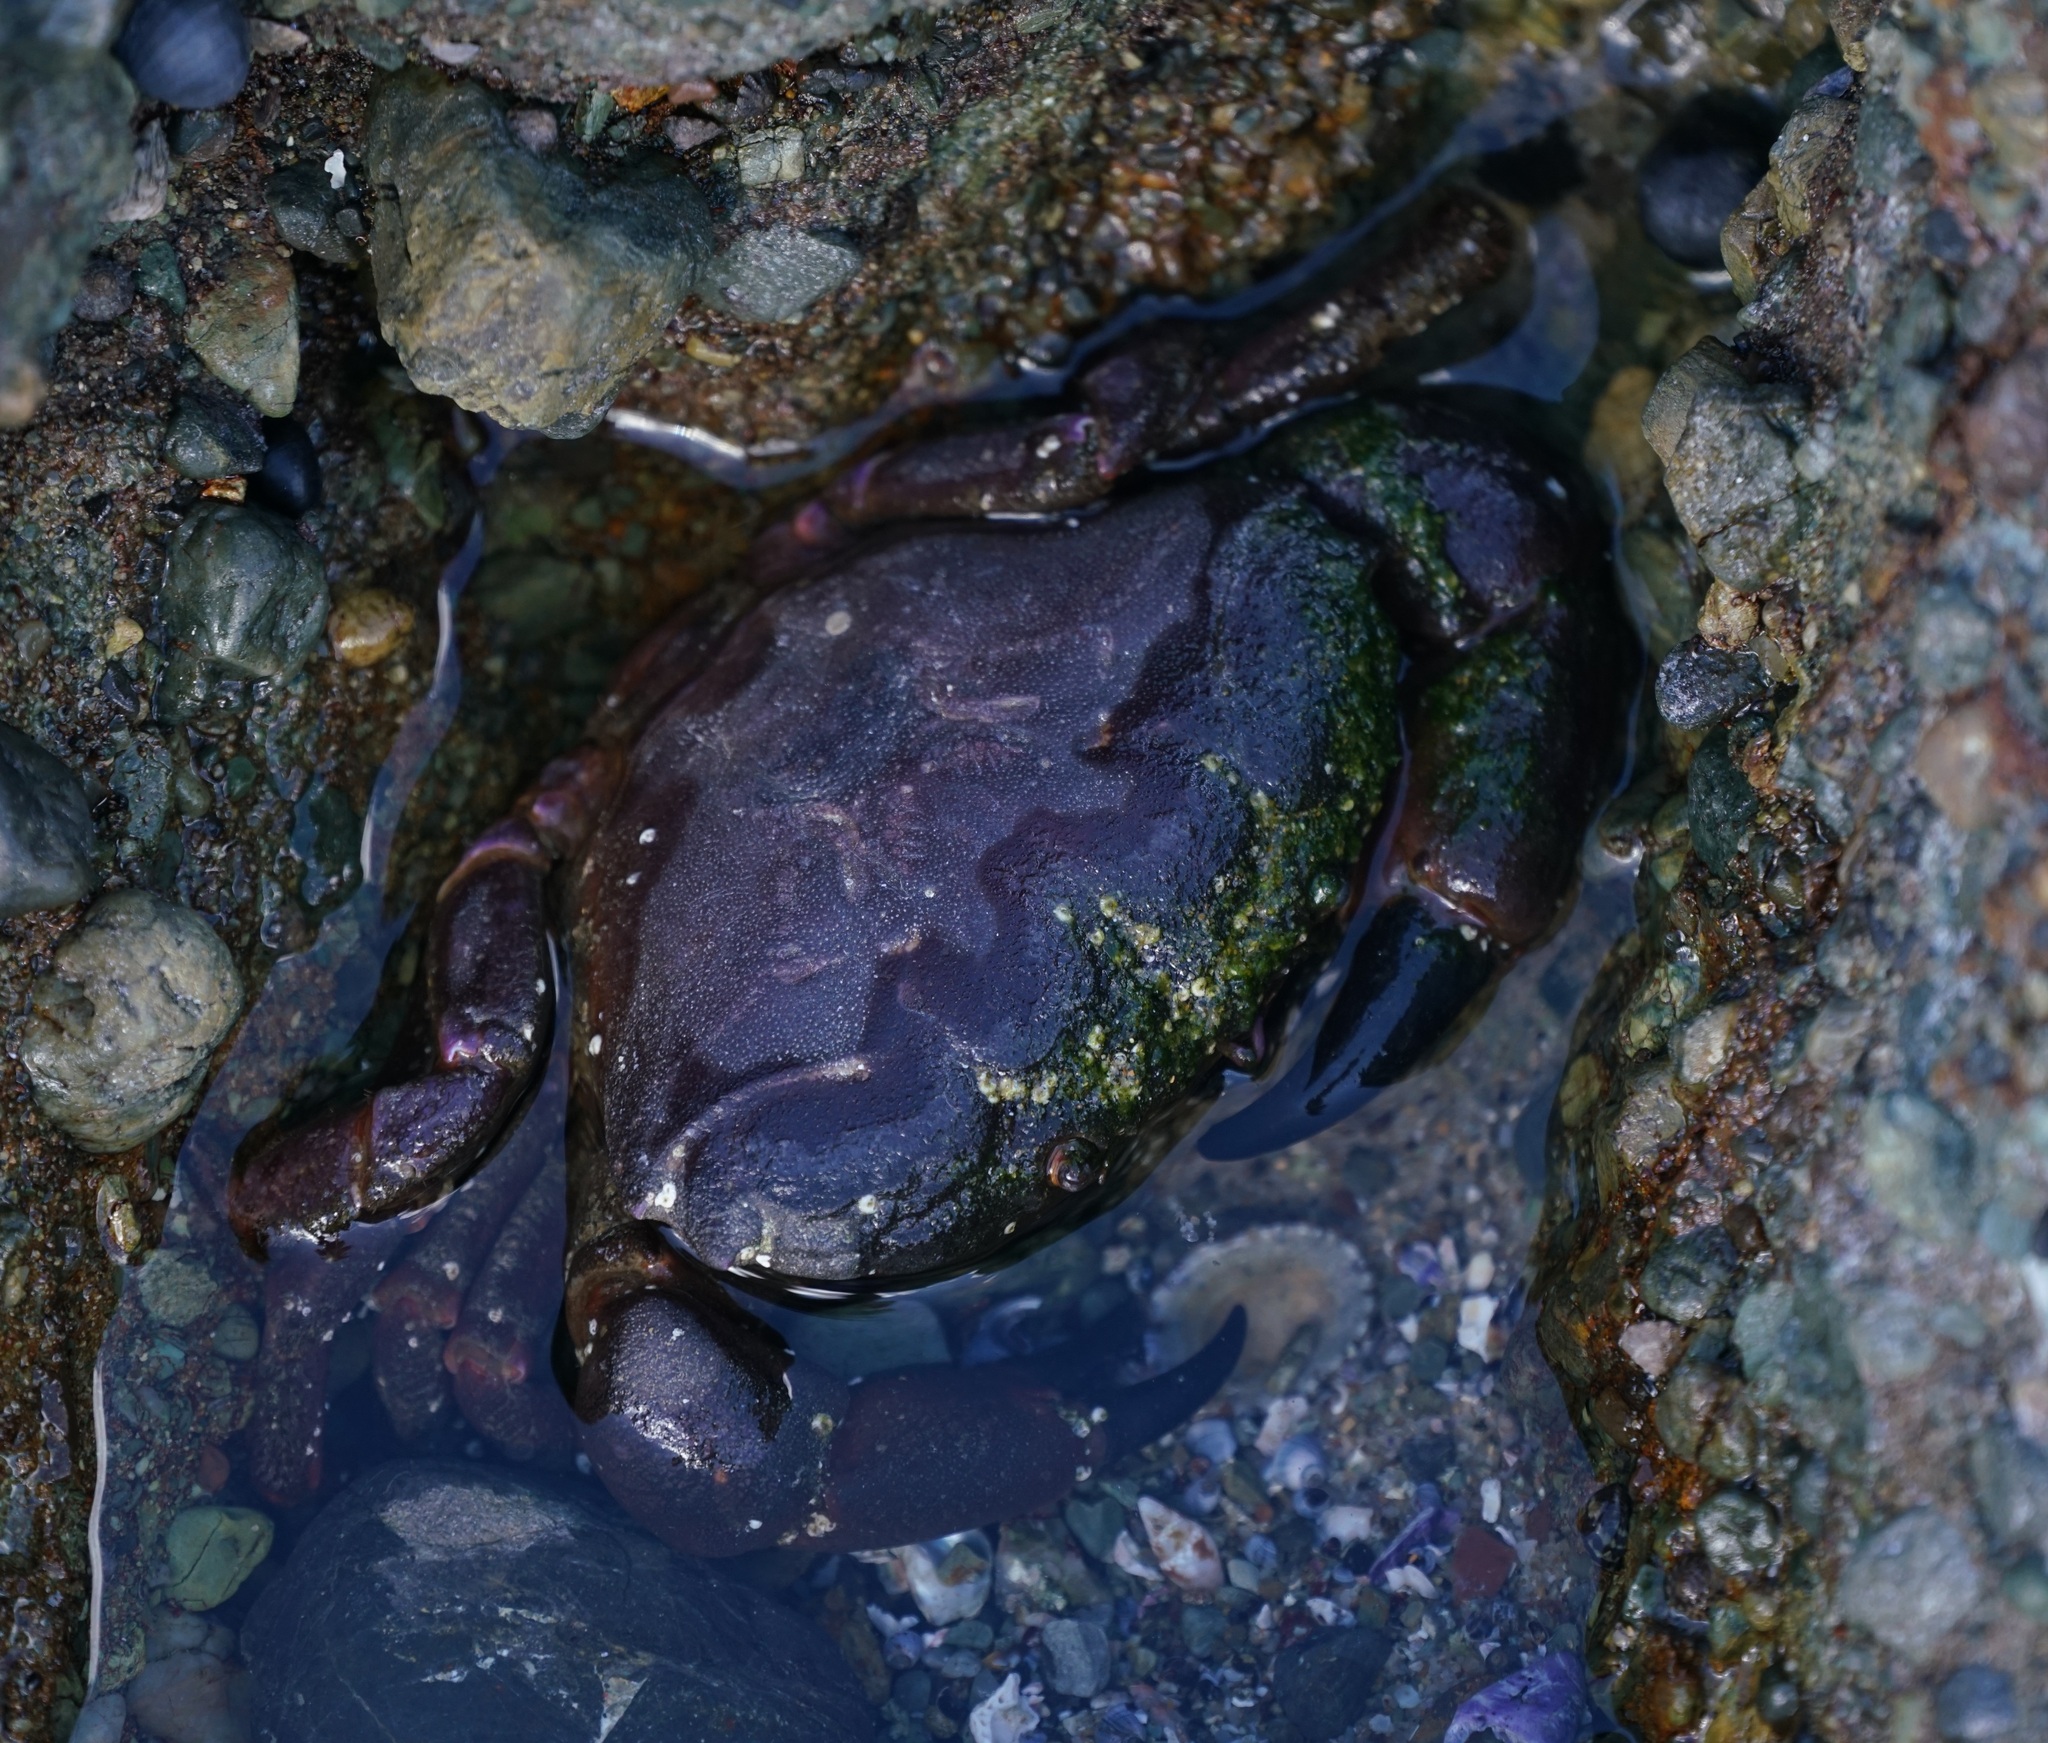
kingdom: Animalia
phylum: Arthropoda
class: Malacostraca
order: Decapoda
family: Oziidae
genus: Ozius
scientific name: Ozius truncatus
